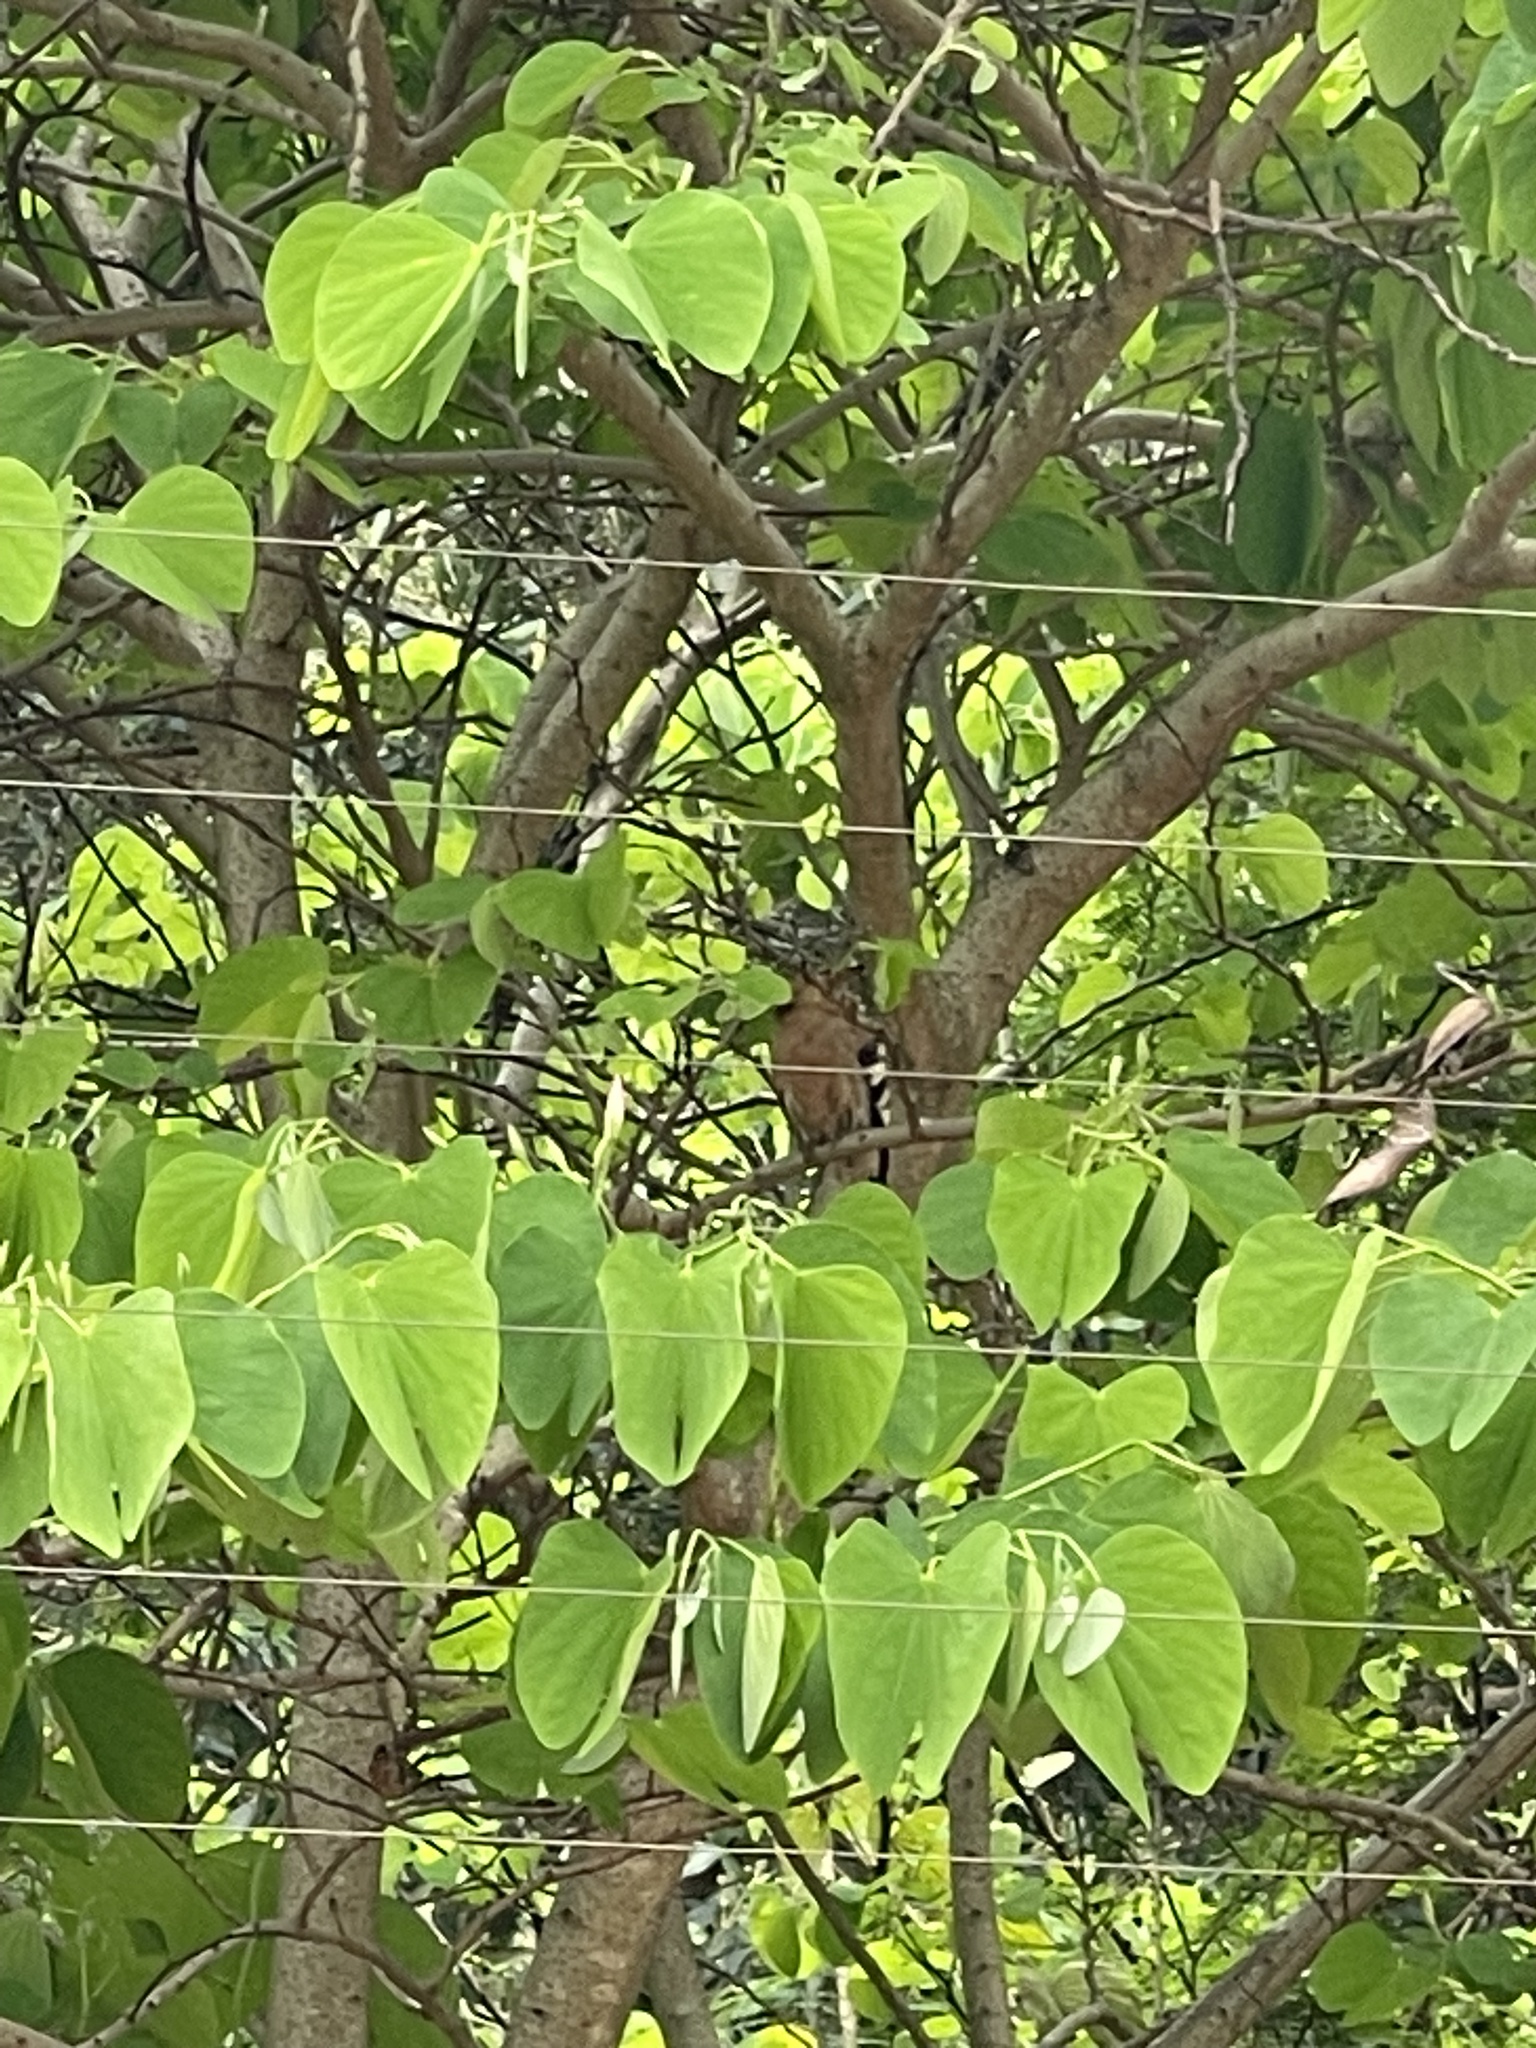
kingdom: Animalia
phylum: Chordata
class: Aves
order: Bucerotiformes
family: Upupidae
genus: Upupa
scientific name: Upupa africana
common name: African hoopoe
